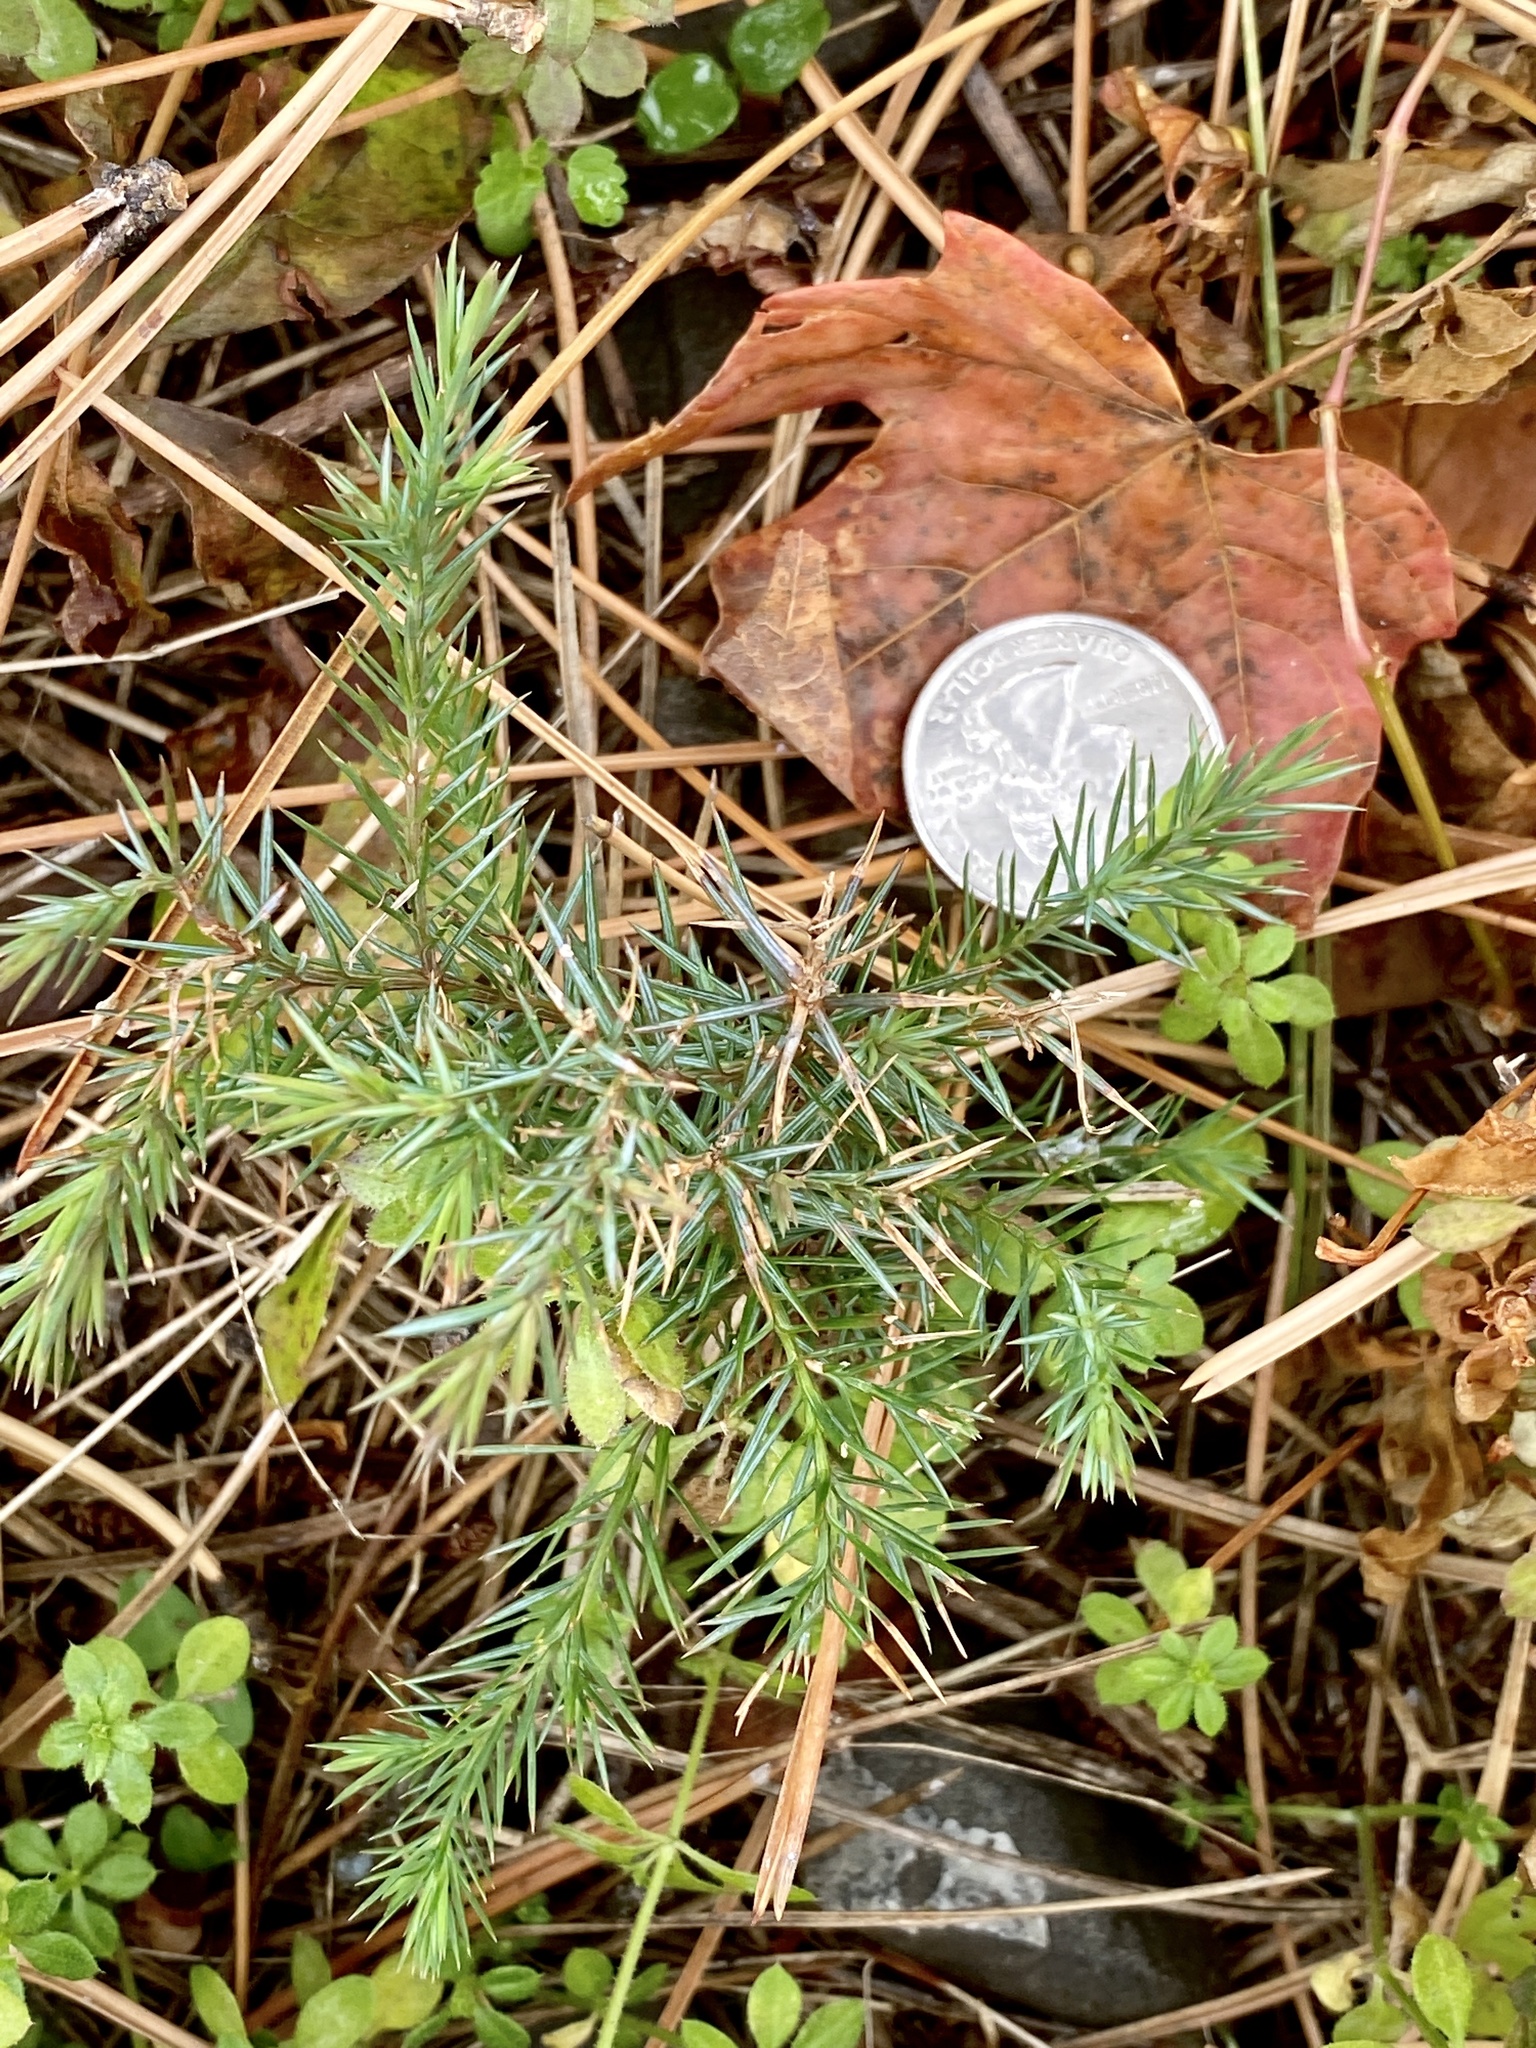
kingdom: Plantae
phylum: Tracheophyta
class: Pinopsida
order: Pinales
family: Cupressaceae
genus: Juniperus
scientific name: Juniperus virginiana
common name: Red juniper
